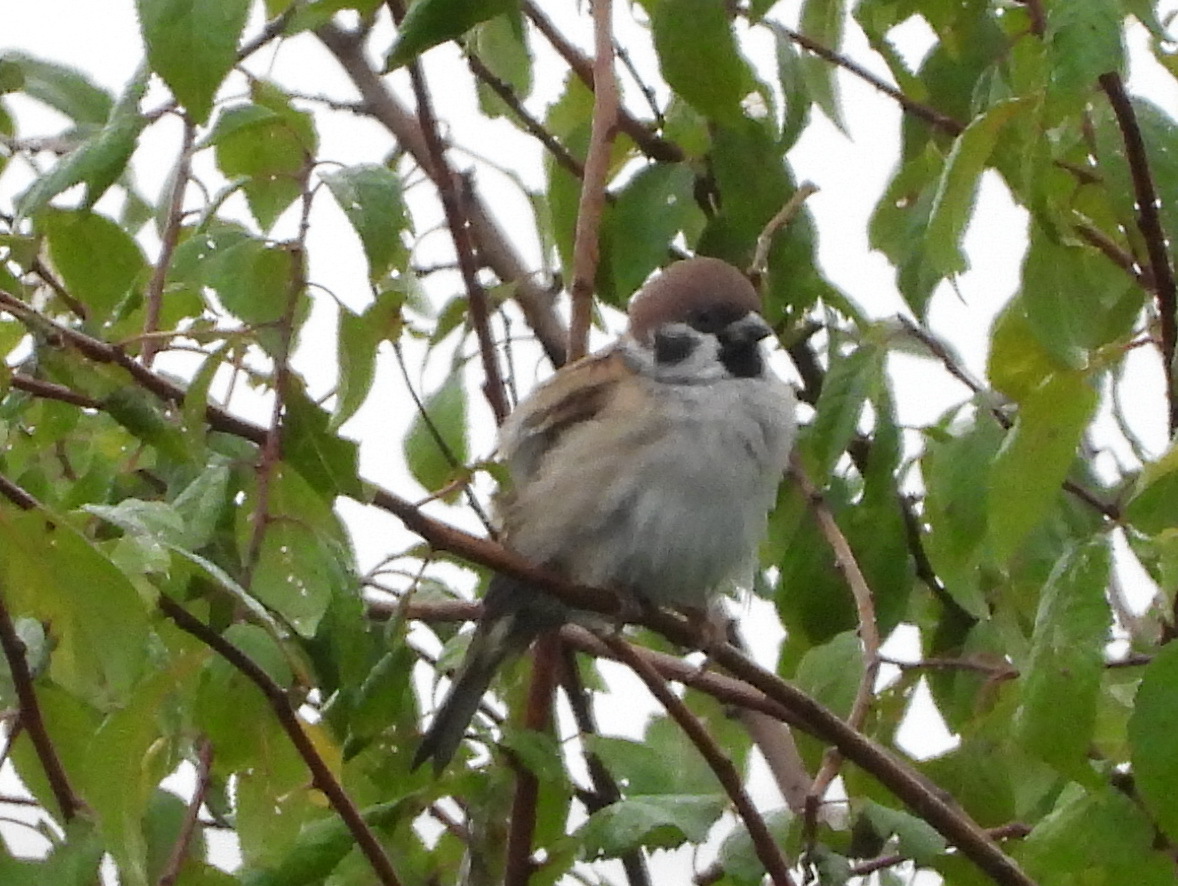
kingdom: Animalia
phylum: Chordata
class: Aves
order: Passeriformes
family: Passeridae
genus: Passer
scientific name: Passer montanus
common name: Eurasian tree sparrow
